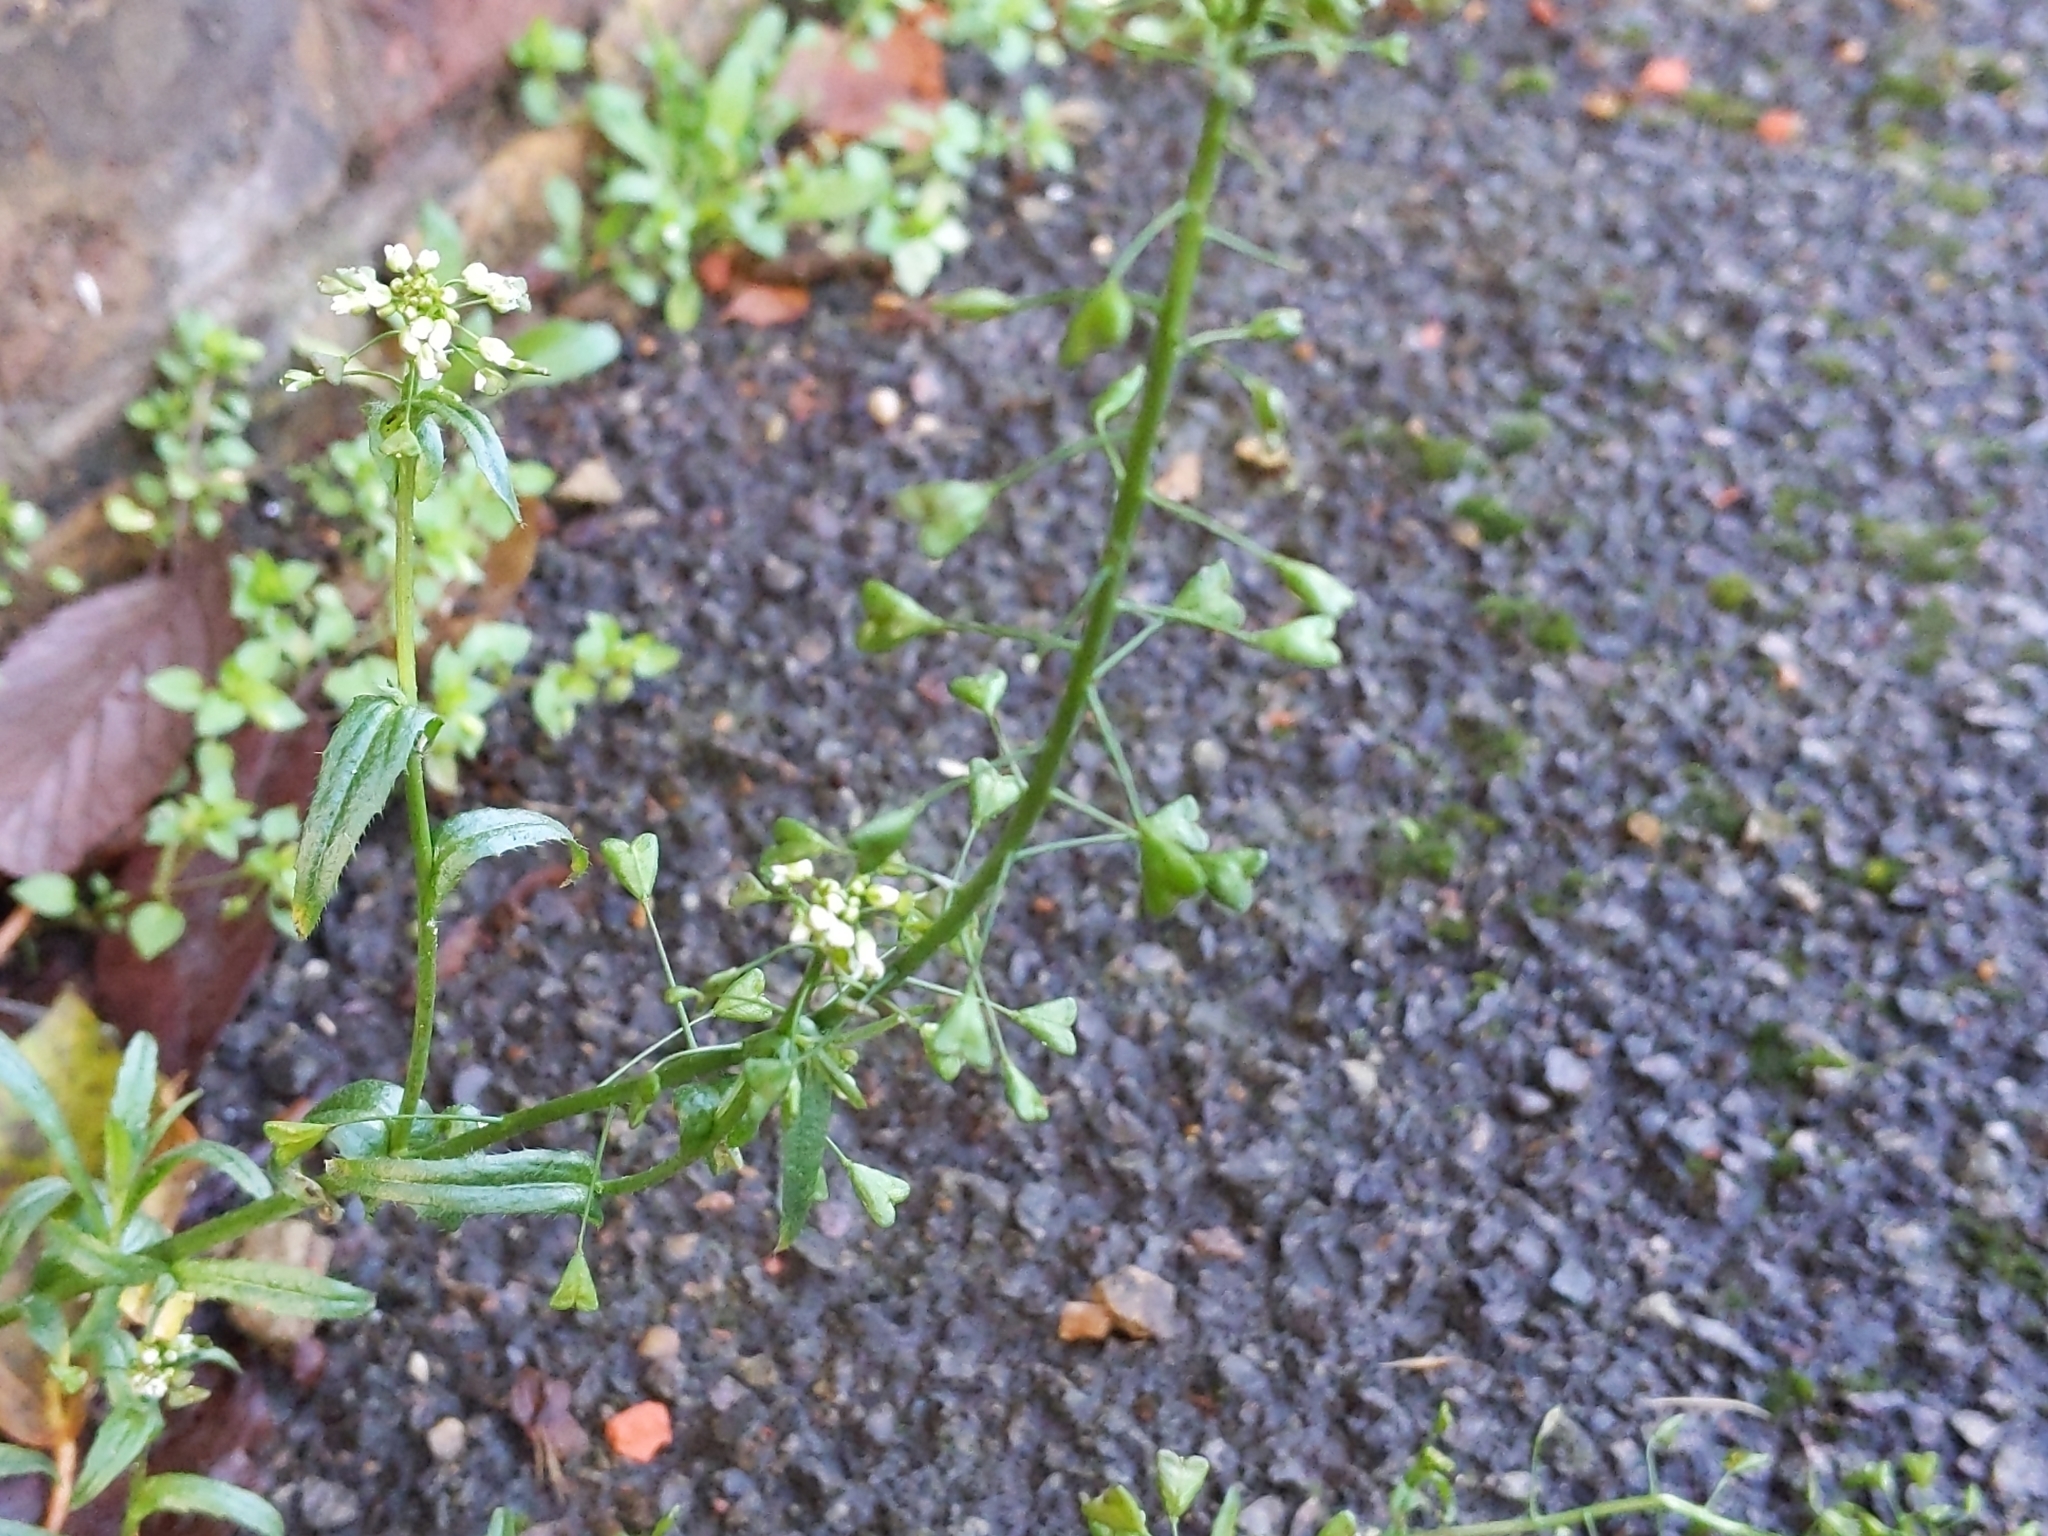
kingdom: Plantae
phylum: Tracheophyta
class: Magnoliopsida
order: Brassicales
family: Brassicaceae
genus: Capsella
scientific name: Capsella bursa-pastoris
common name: Shepherd's purse
